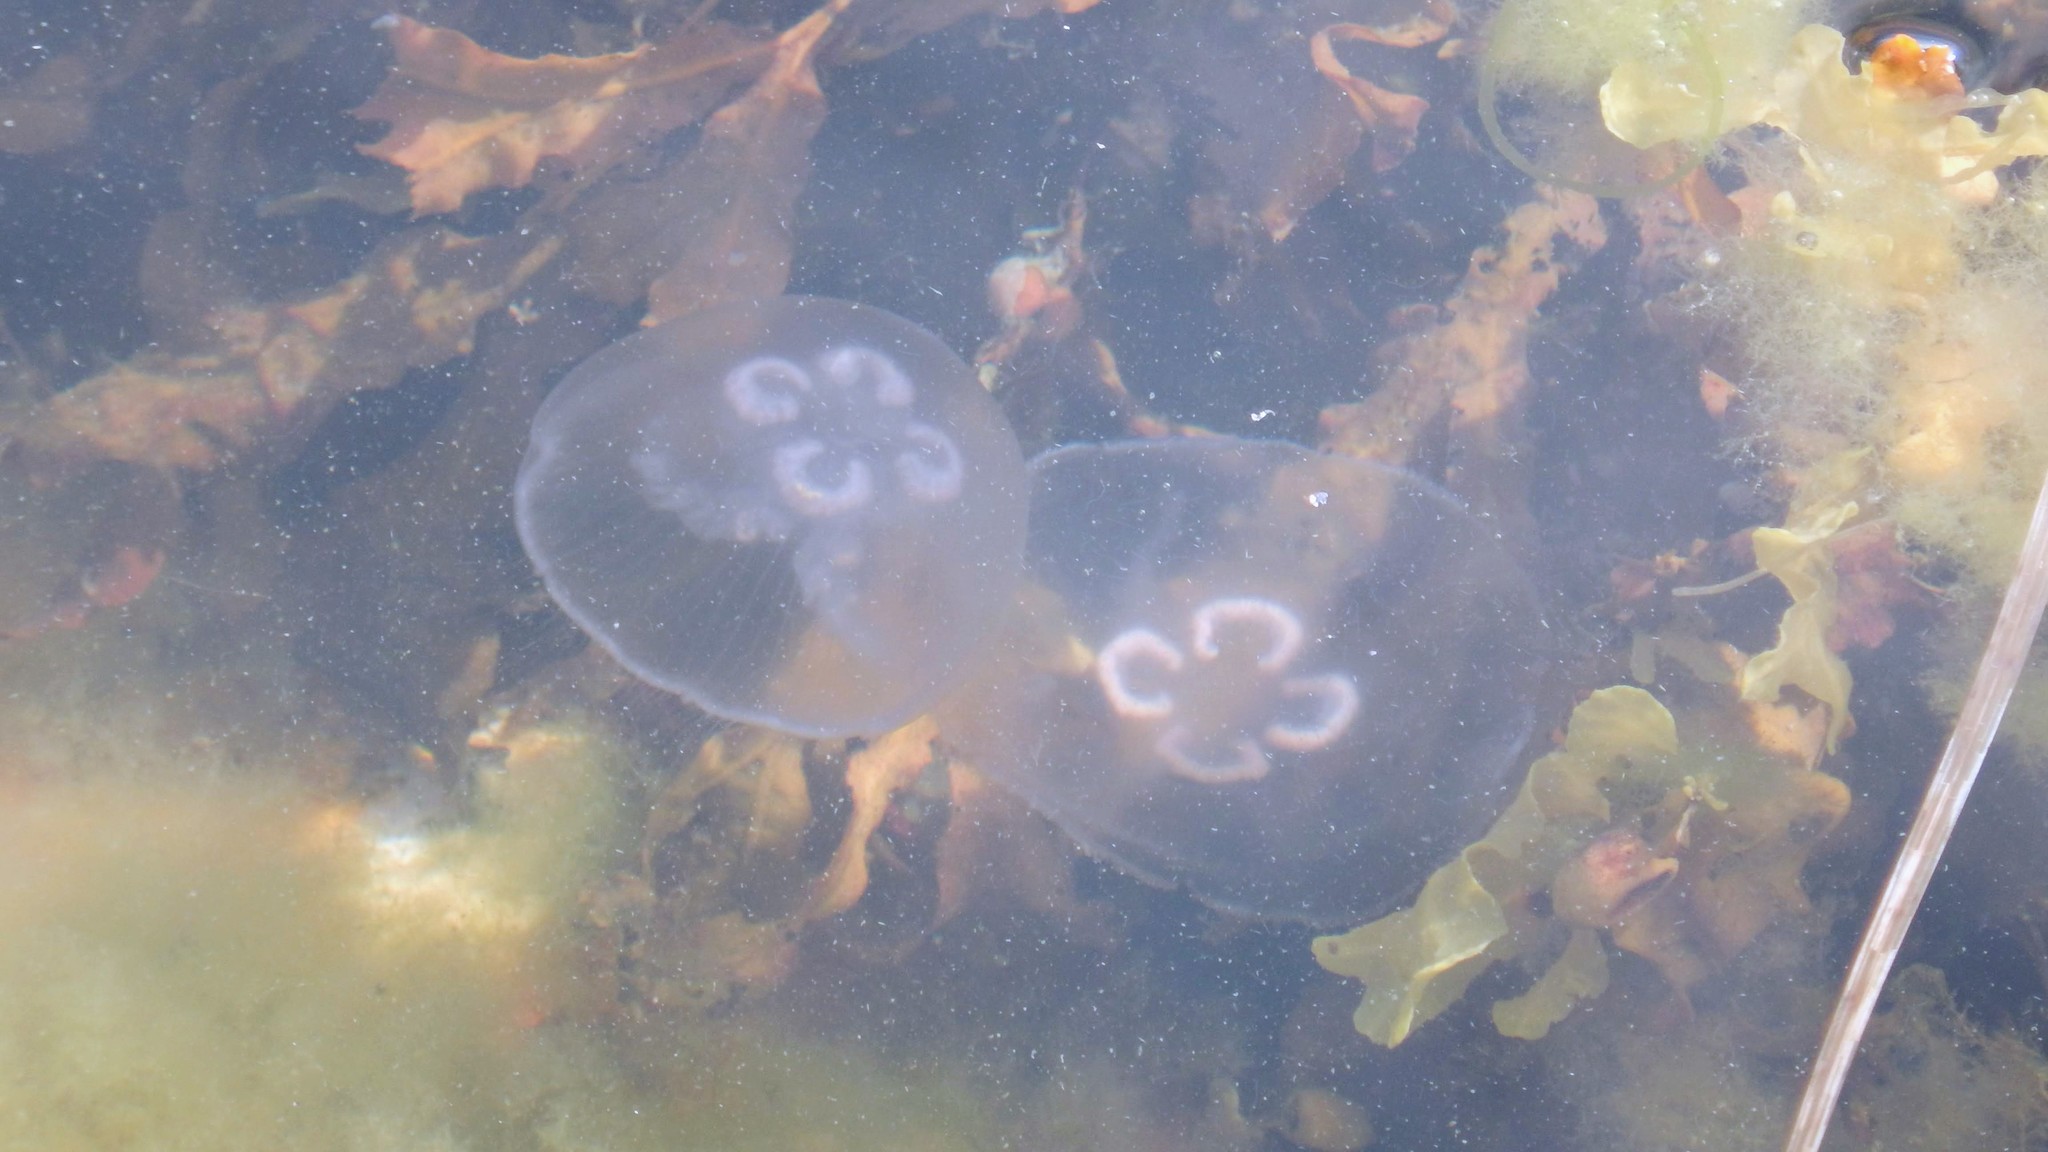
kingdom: Animalia
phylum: Cnidaria
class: Scyphozoa
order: Semaeostomeae
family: Ulmaridae
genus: Aurelia
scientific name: Aurelia aurita
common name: Moon jellyfish
